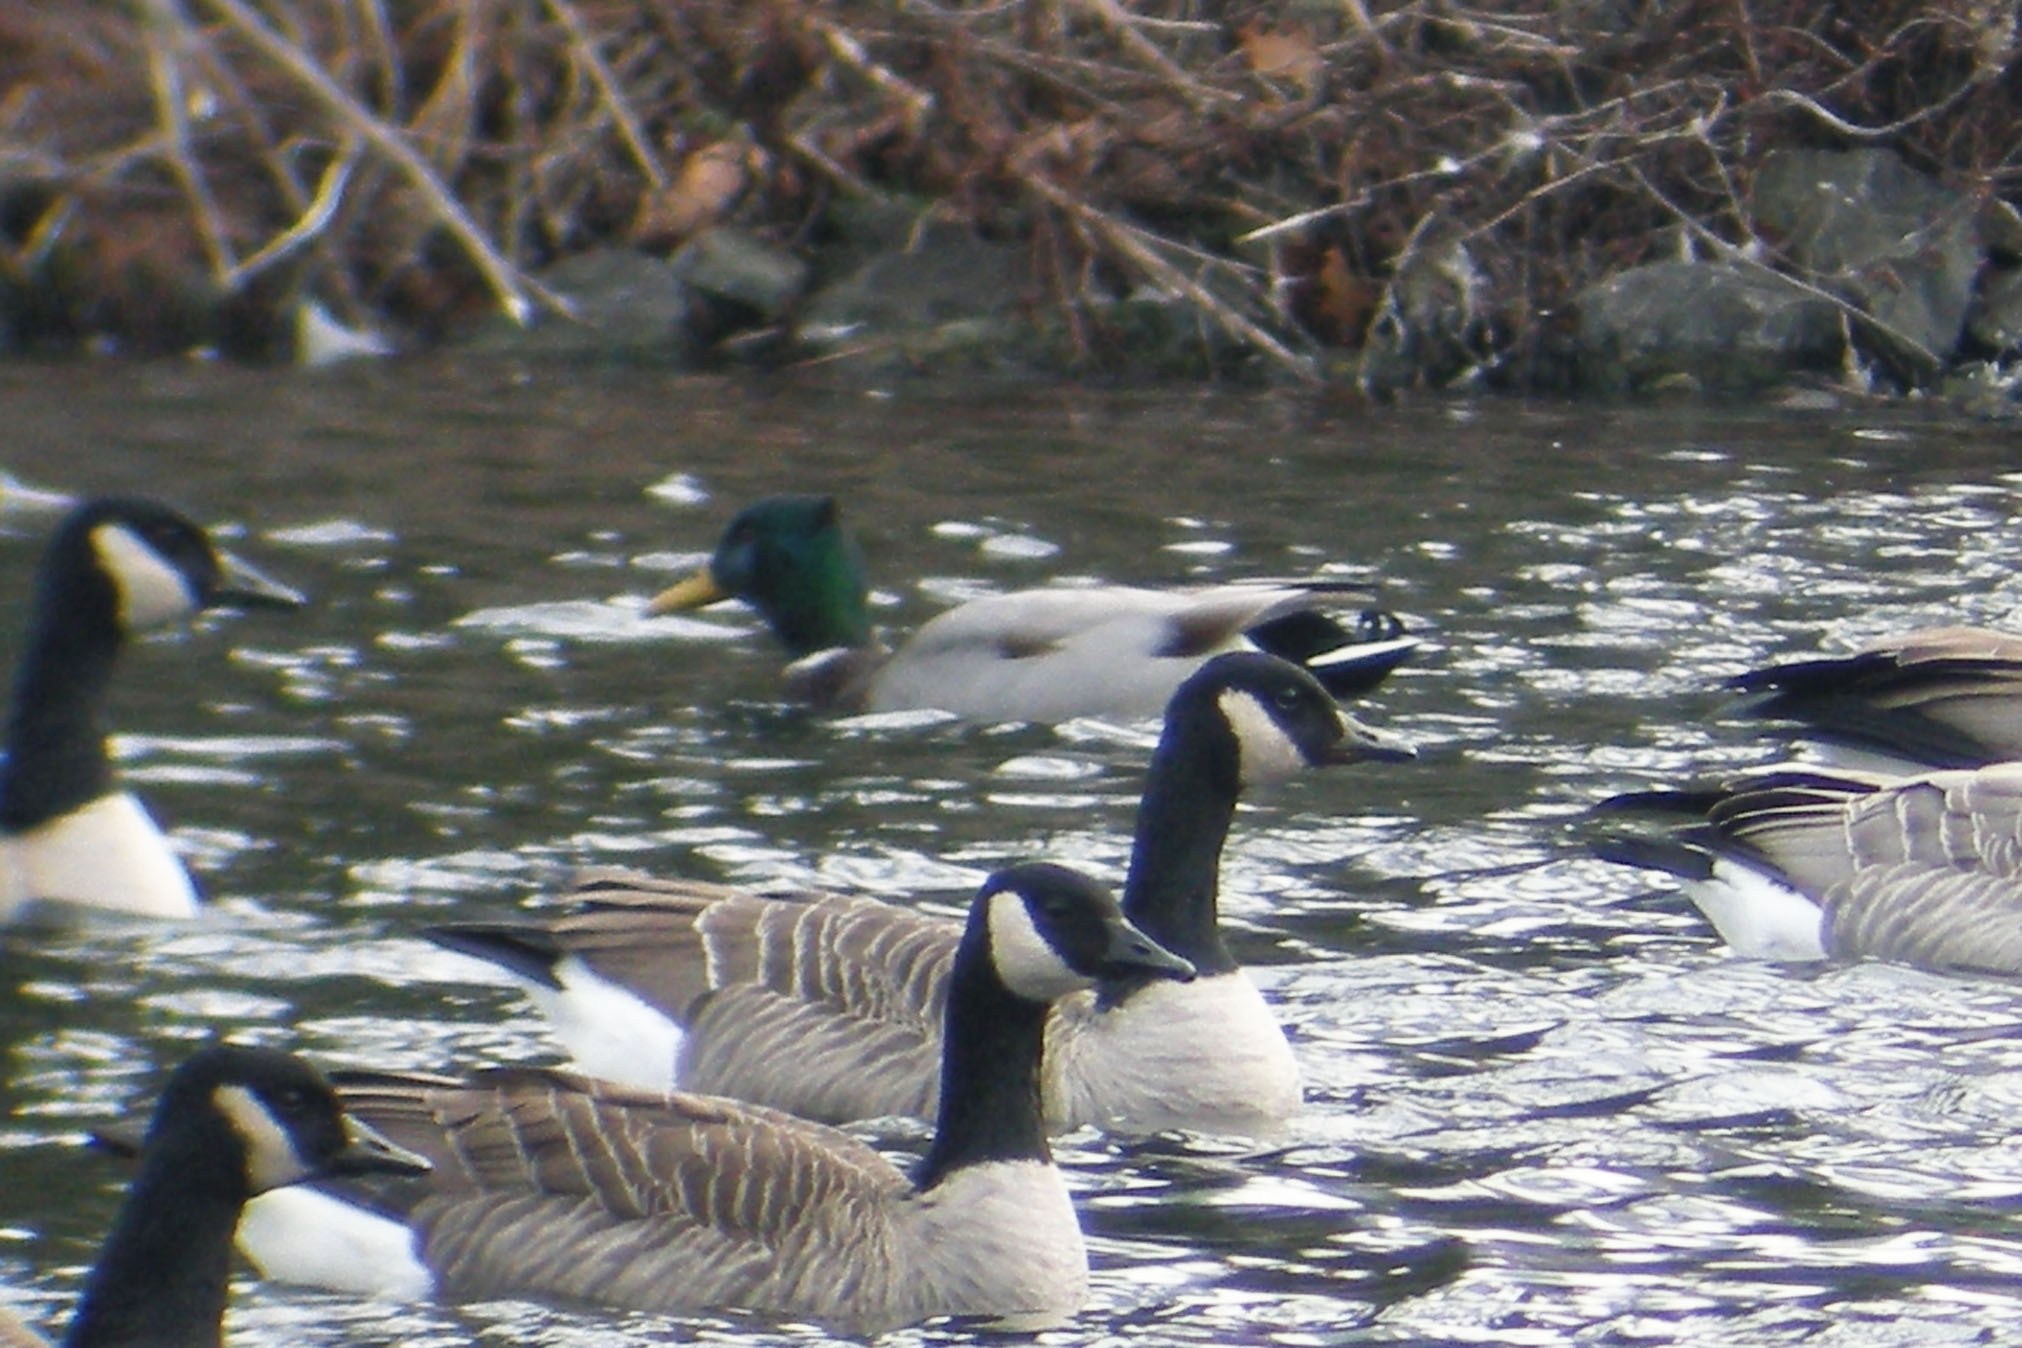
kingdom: Animalia
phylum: Chordata
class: Aves
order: Anseriformes
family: Anatidae
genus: Anas
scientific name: Anas platyrhynchos
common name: Mallard
